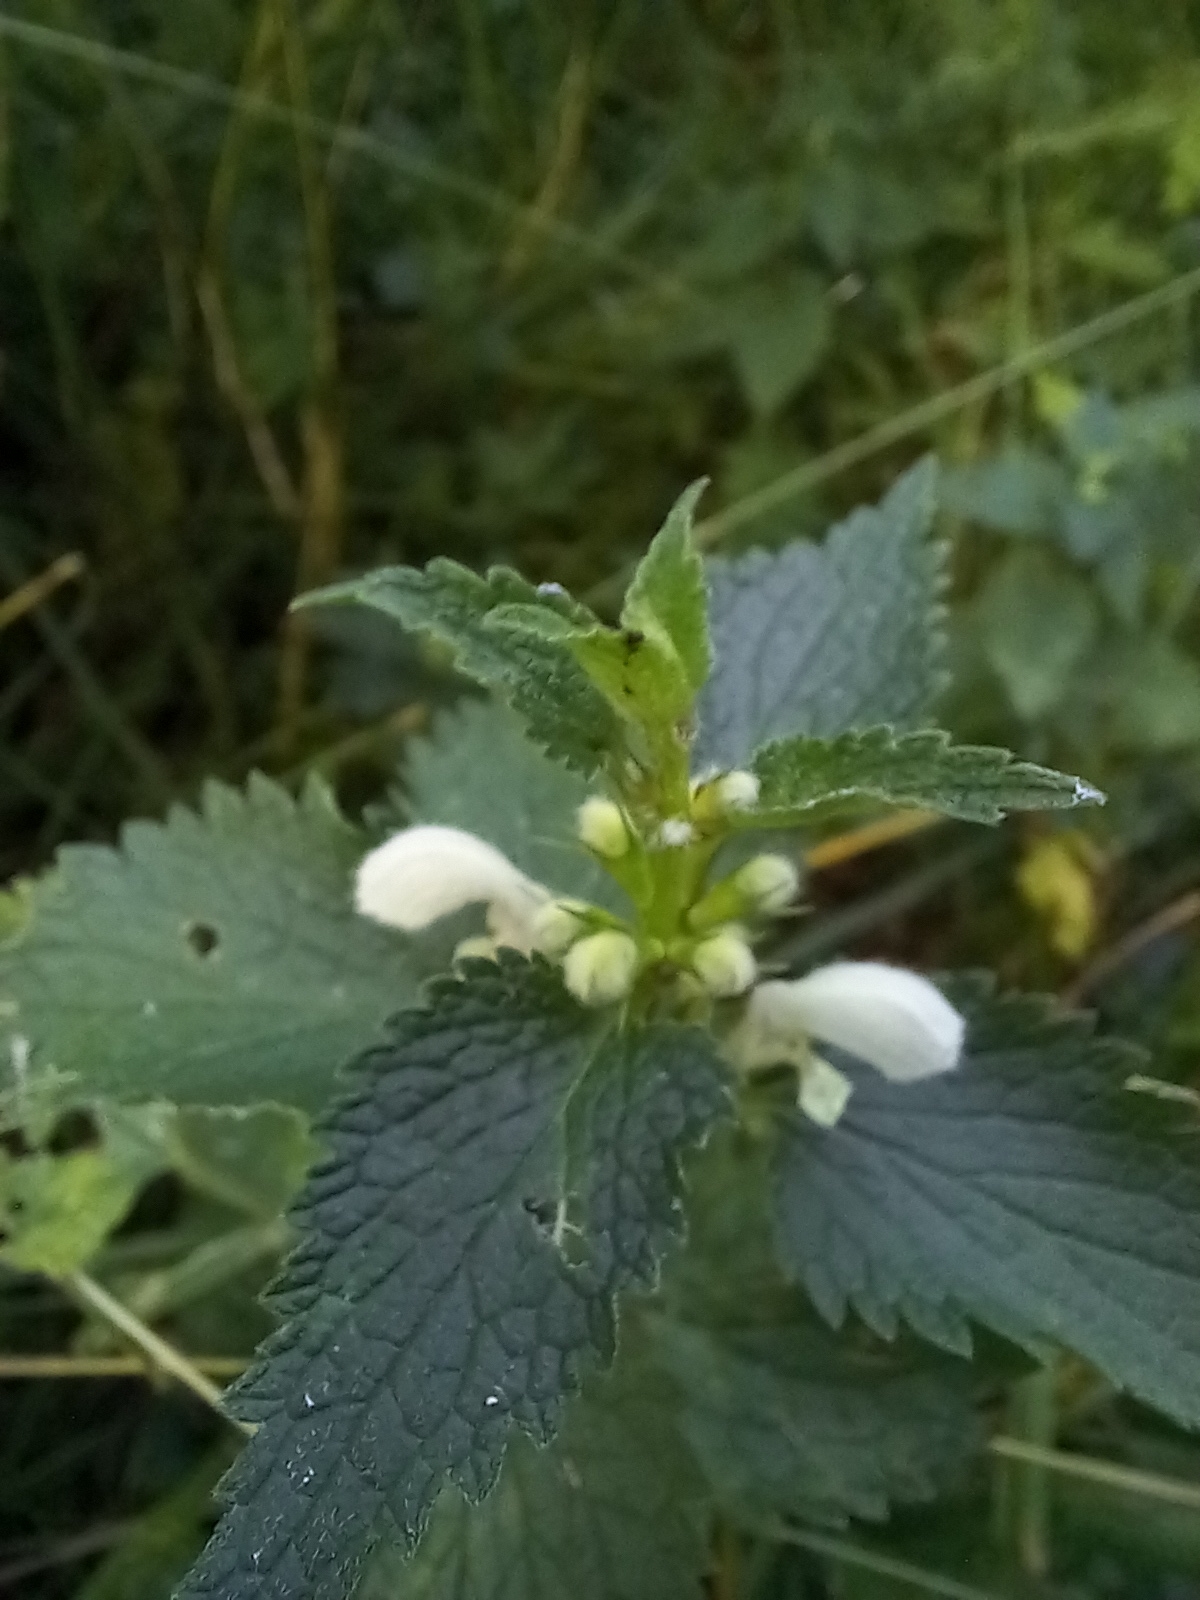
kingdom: Plantae
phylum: Tracheophyta
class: Magnoliopsida
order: Lamiales
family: Lamiaceae
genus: Lamium
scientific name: Lamium album
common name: White dead-nettle
